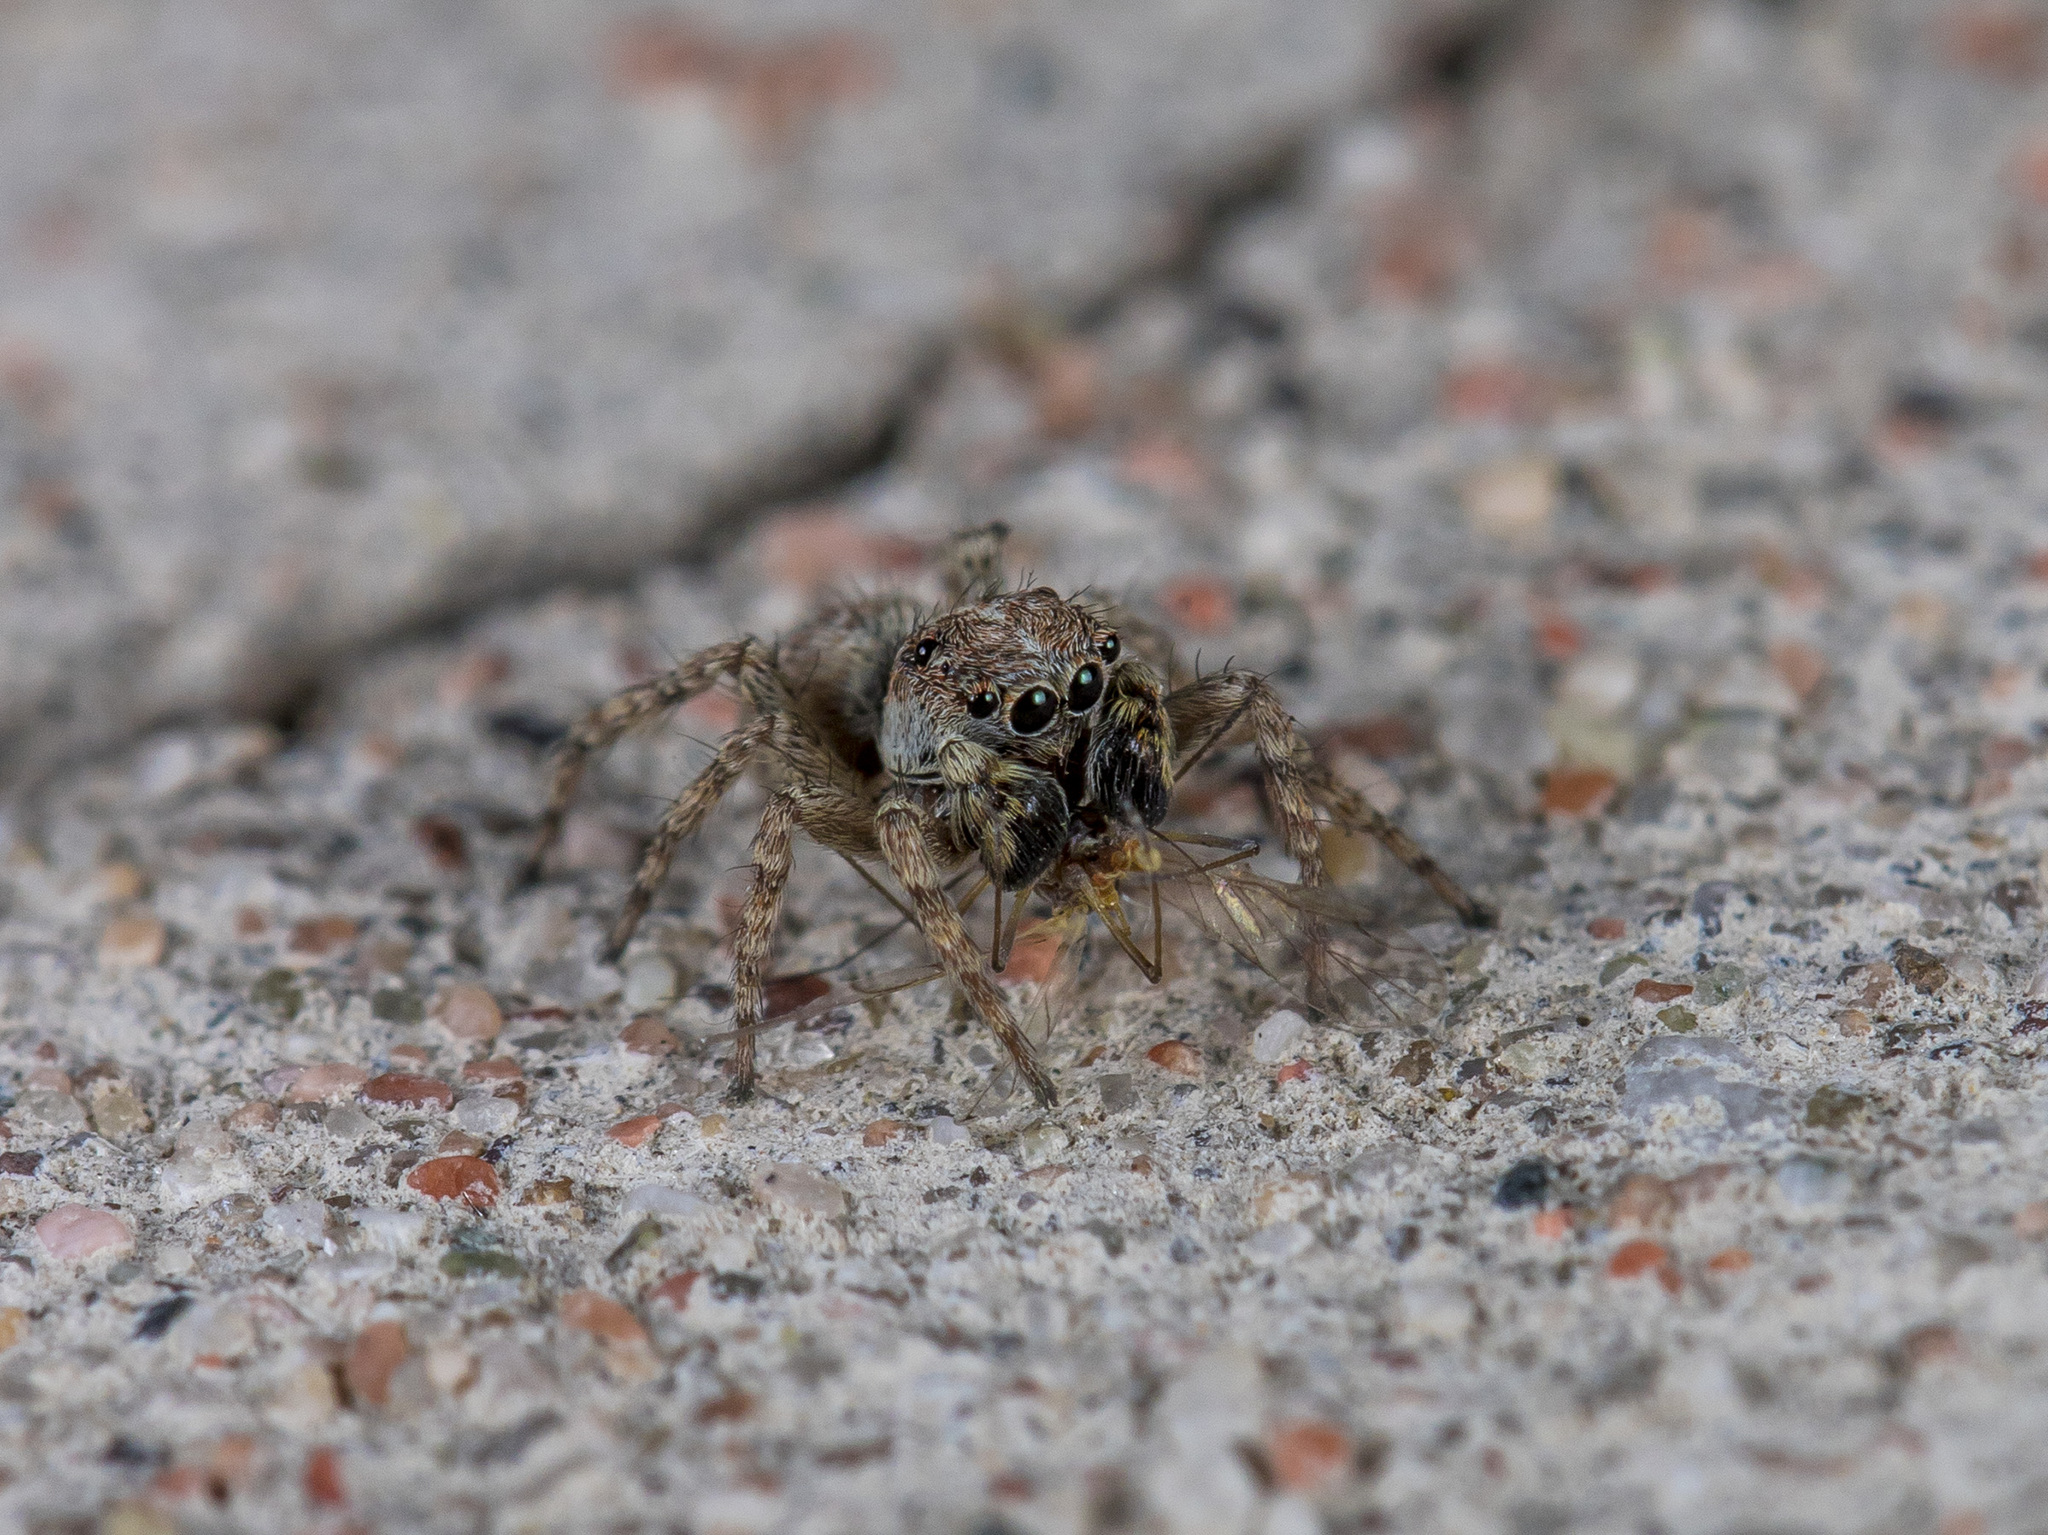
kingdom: Animalia
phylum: Arthropoda
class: Arachnida
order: Araneae
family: Salticidae
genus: Attulus
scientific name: Attulus fasciger
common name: Asiatic wall jumping spider
